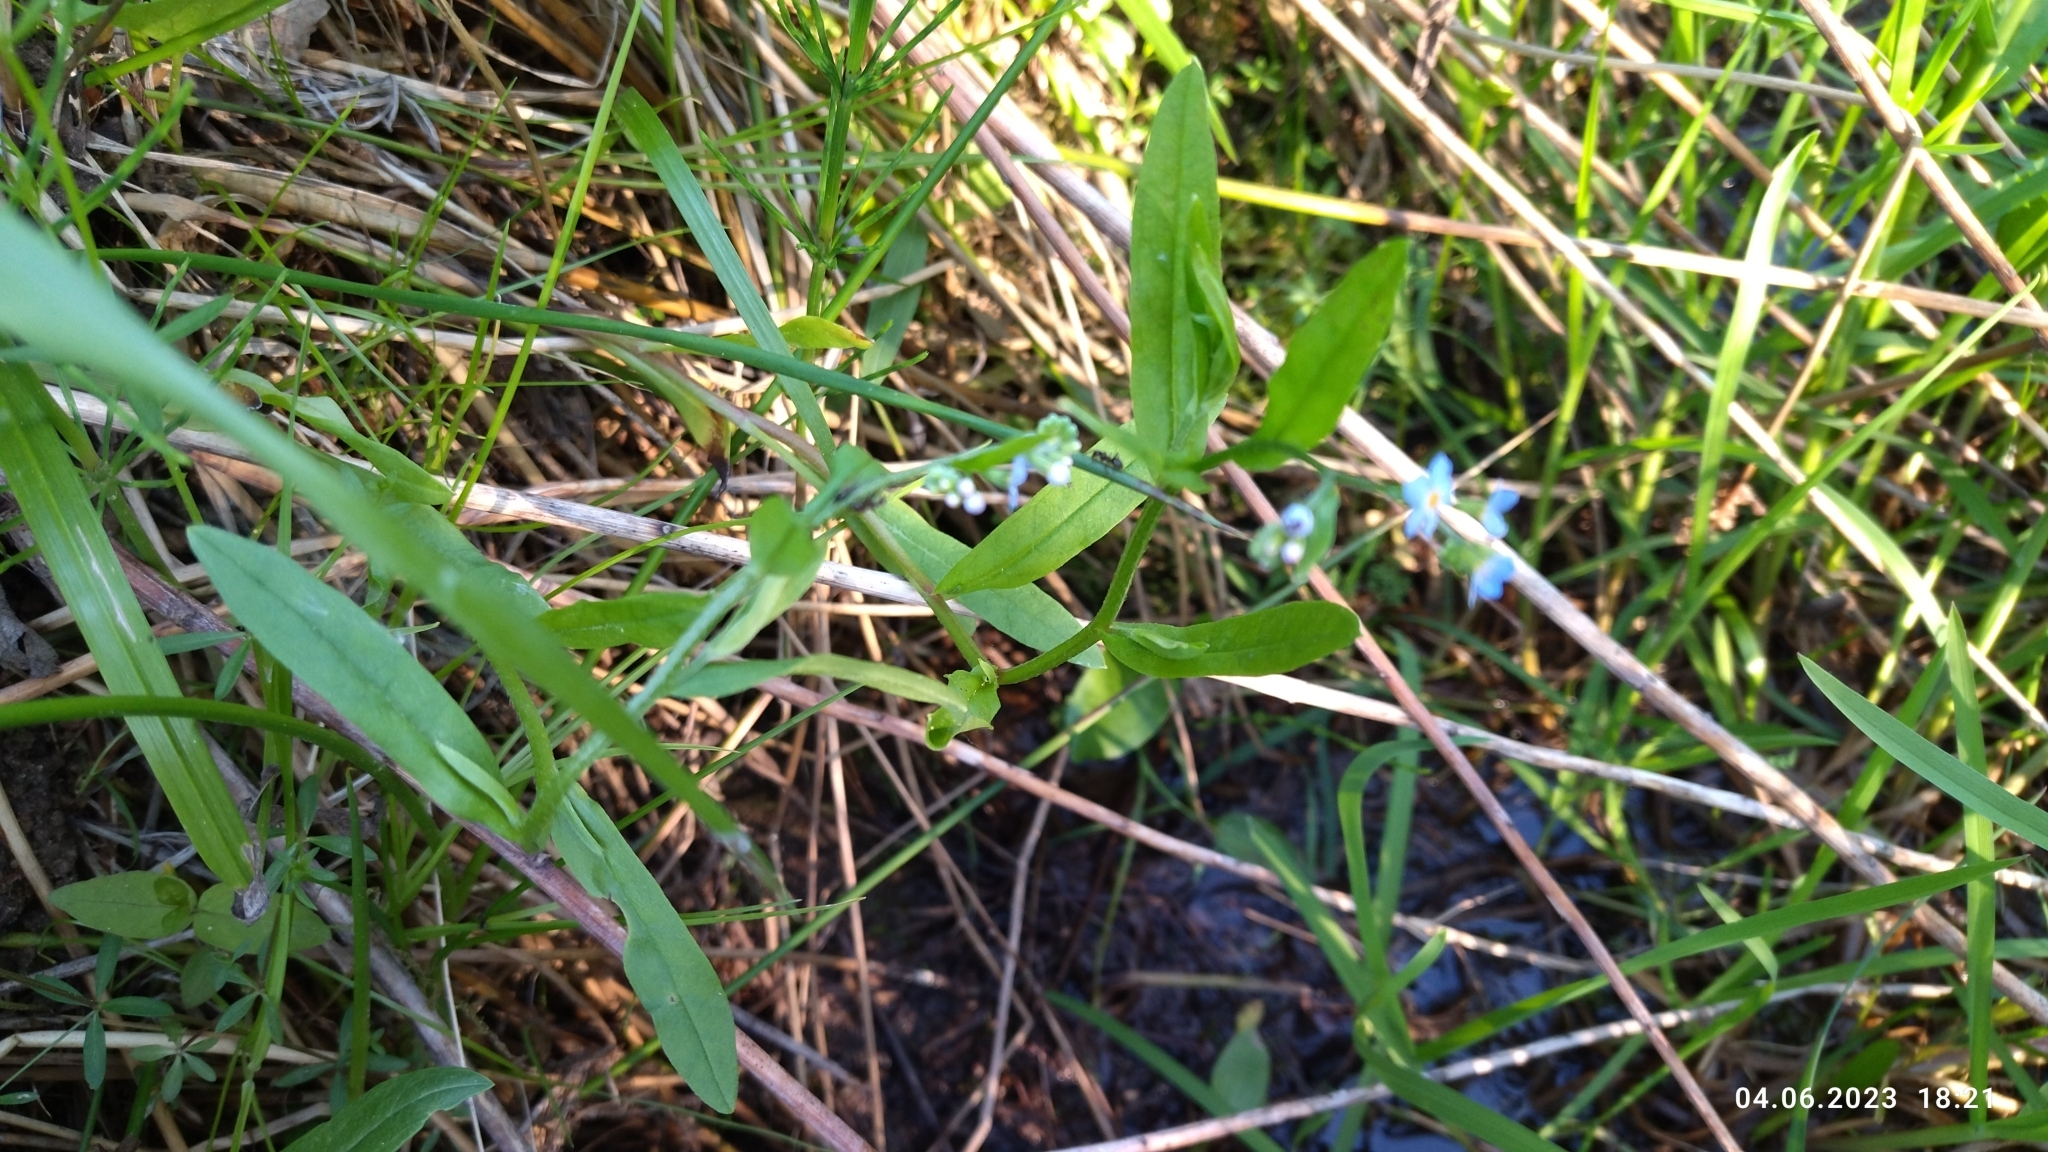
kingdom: Plantae
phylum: Tracheophyta
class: Magnoliopsida
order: Boraginales
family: Boraginaceae
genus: Myosotis
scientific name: Myosotis scorpioides
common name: Water forget-me-not
